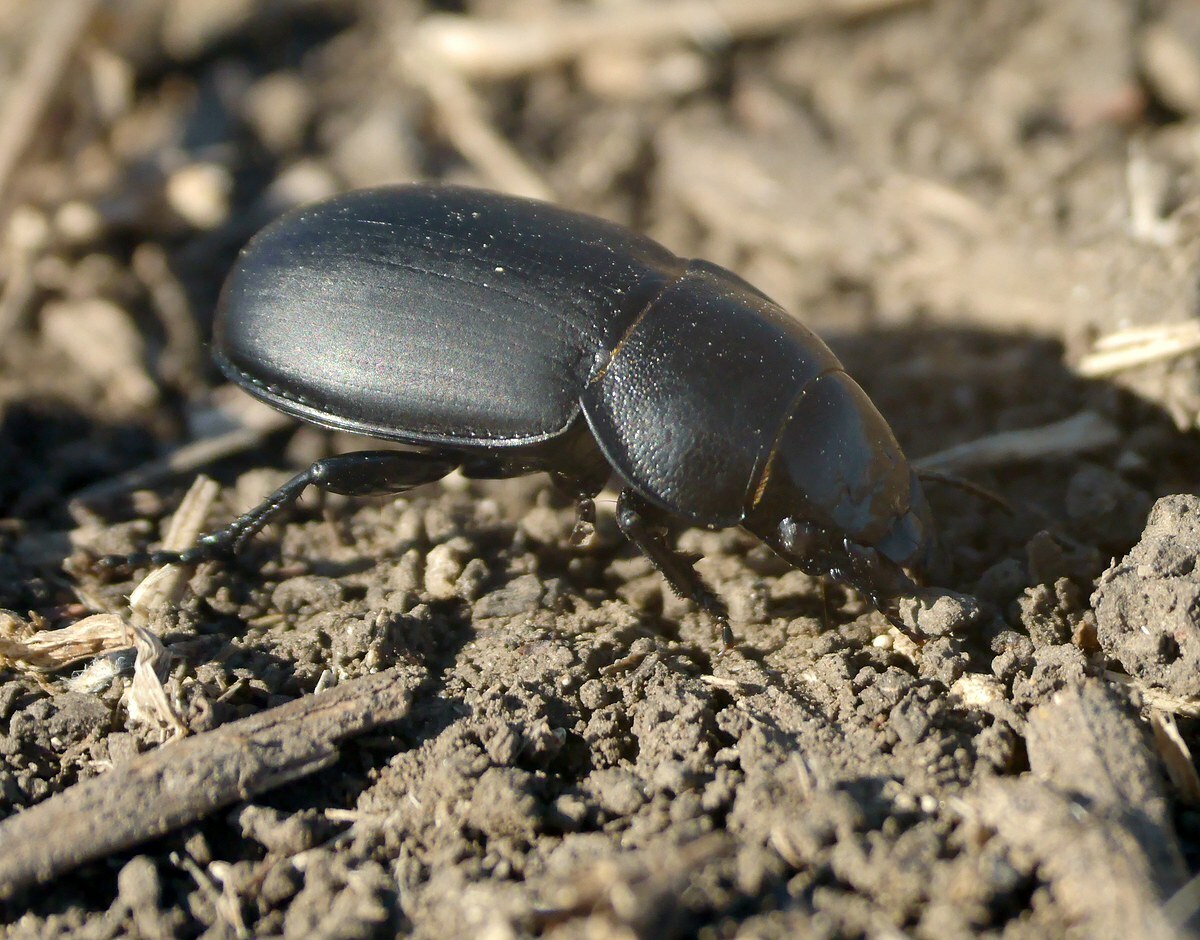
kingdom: Animalia
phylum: Arthropoda
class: Insecta
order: Coleoptera
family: Carabidae
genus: Zabrus
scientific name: Zabrus spinipes
